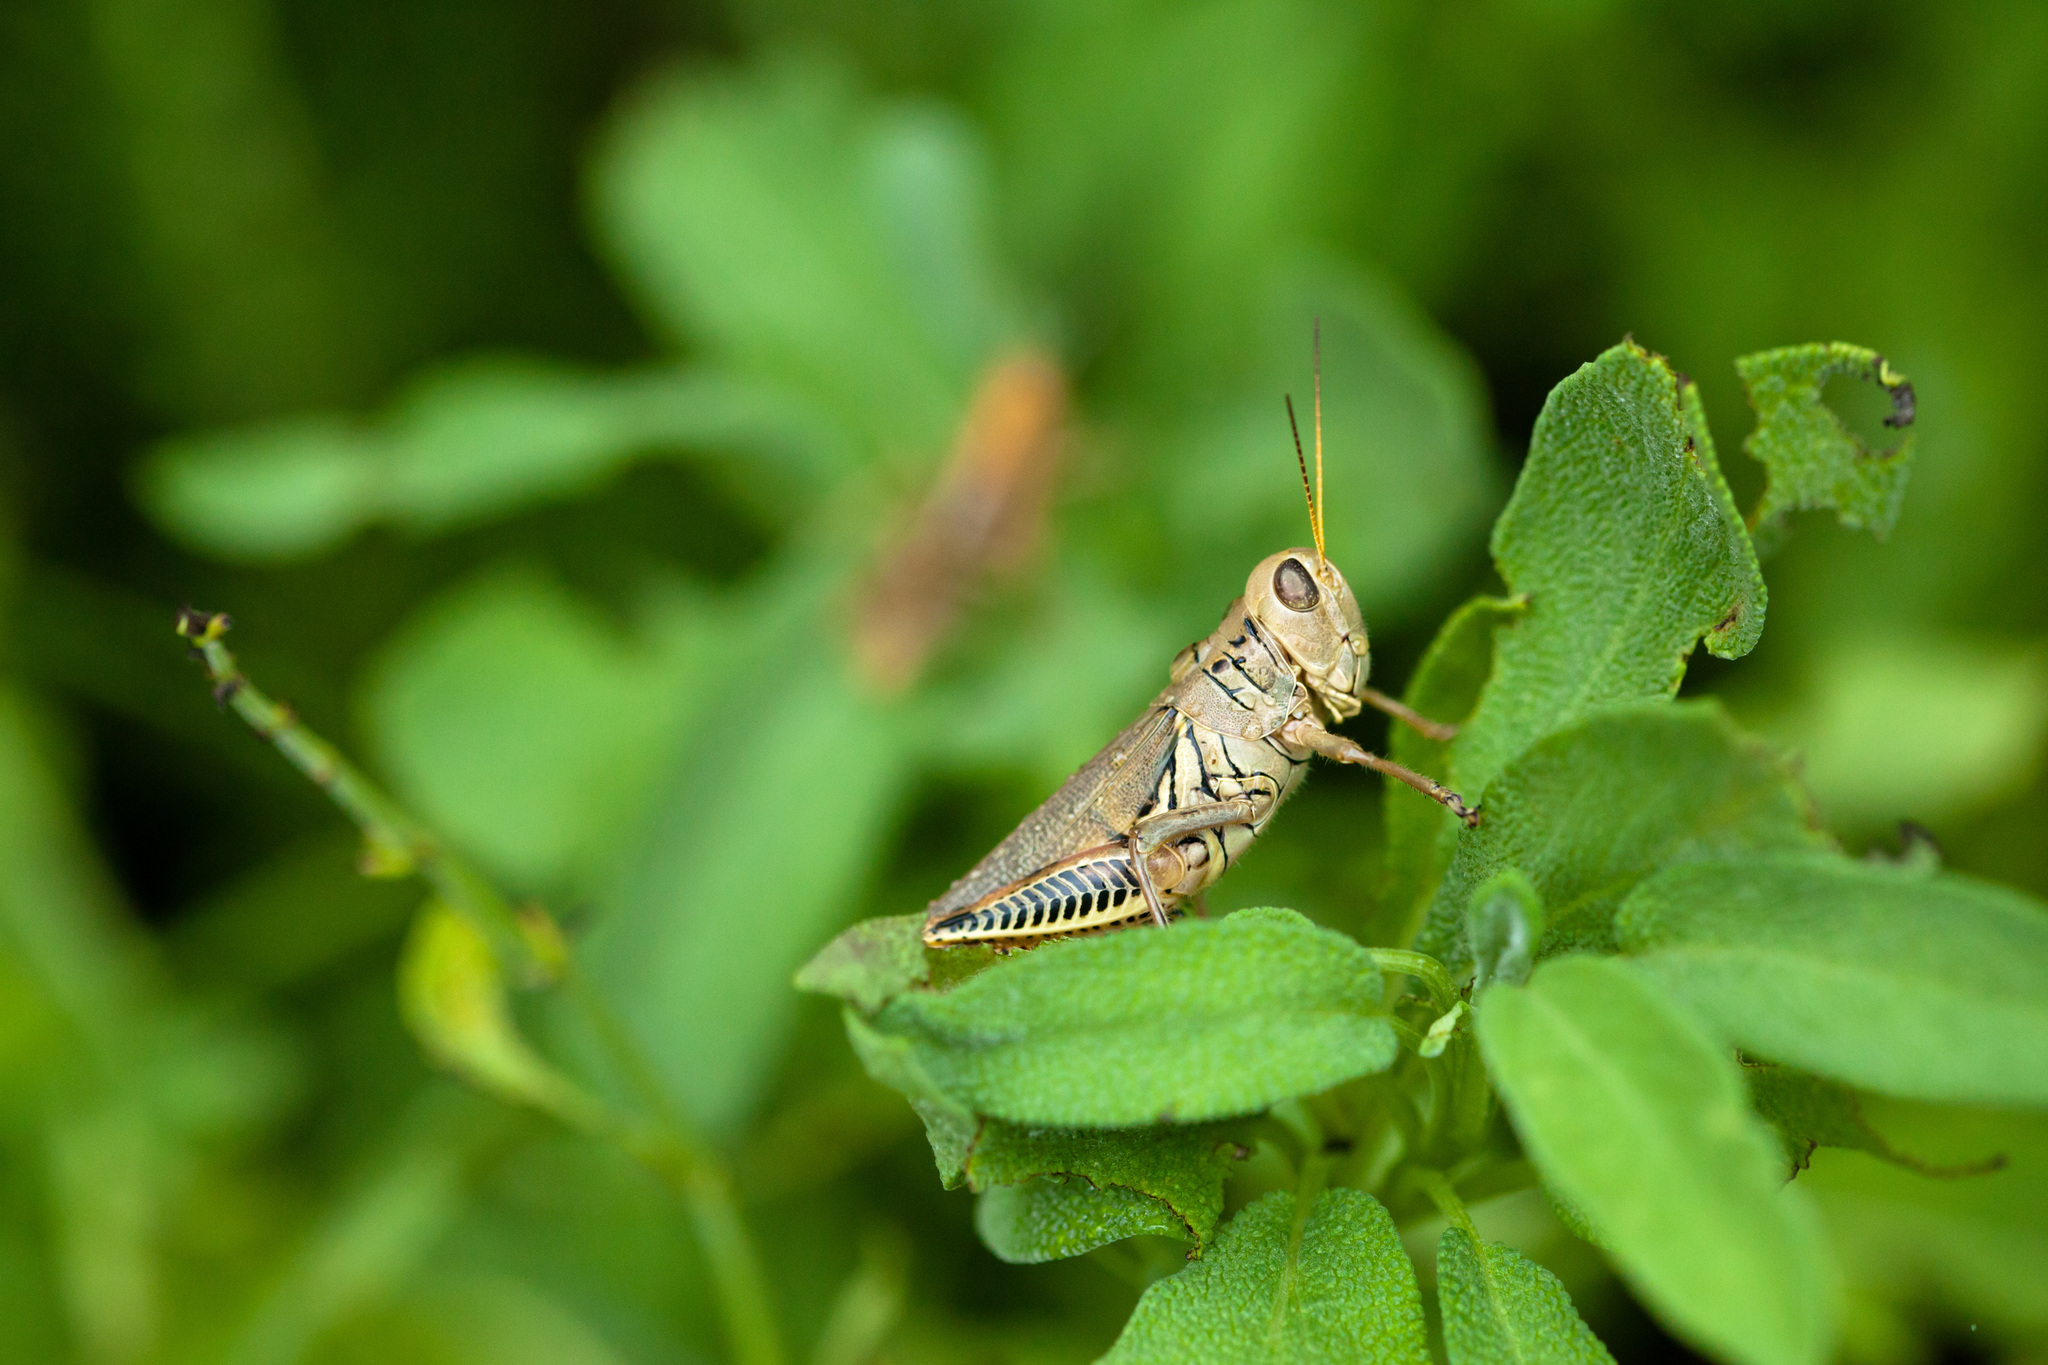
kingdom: Animalia
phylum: Arthropoda
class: Insecta
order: Orthoptera
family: Acrididae
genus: Melanoplus
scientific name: Melanoplus differentialis
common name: Differential grasshopper
